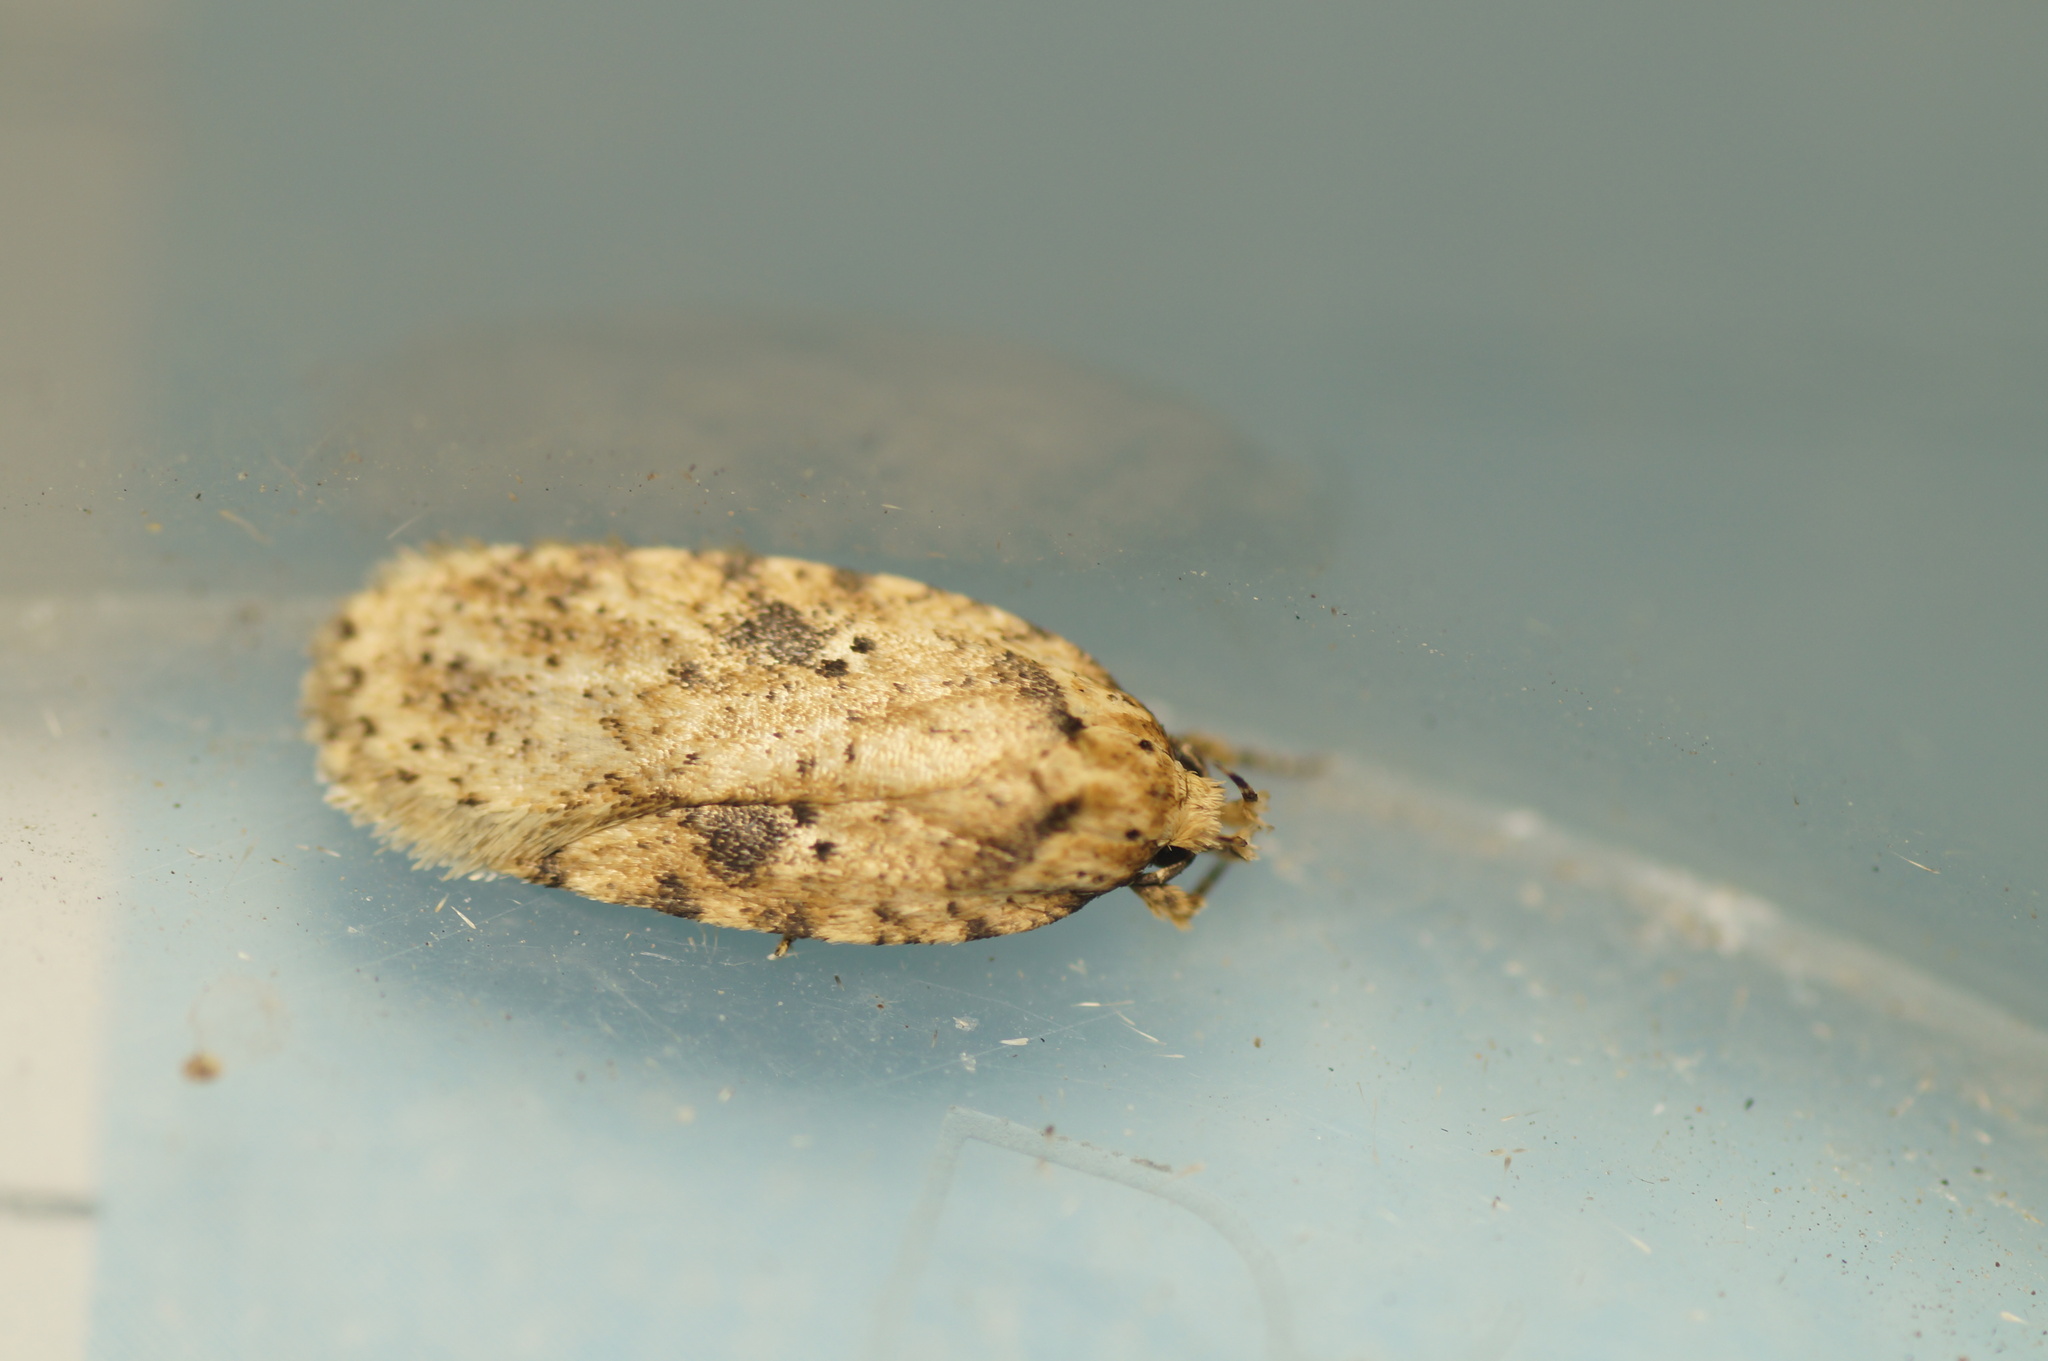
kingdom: Animalia
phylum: Arthropoda
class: Insecta
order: Lepidoptera
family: Depressariidae
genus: Agonopterix
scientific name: Agonopterix arenella
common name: Brindled flat-body
